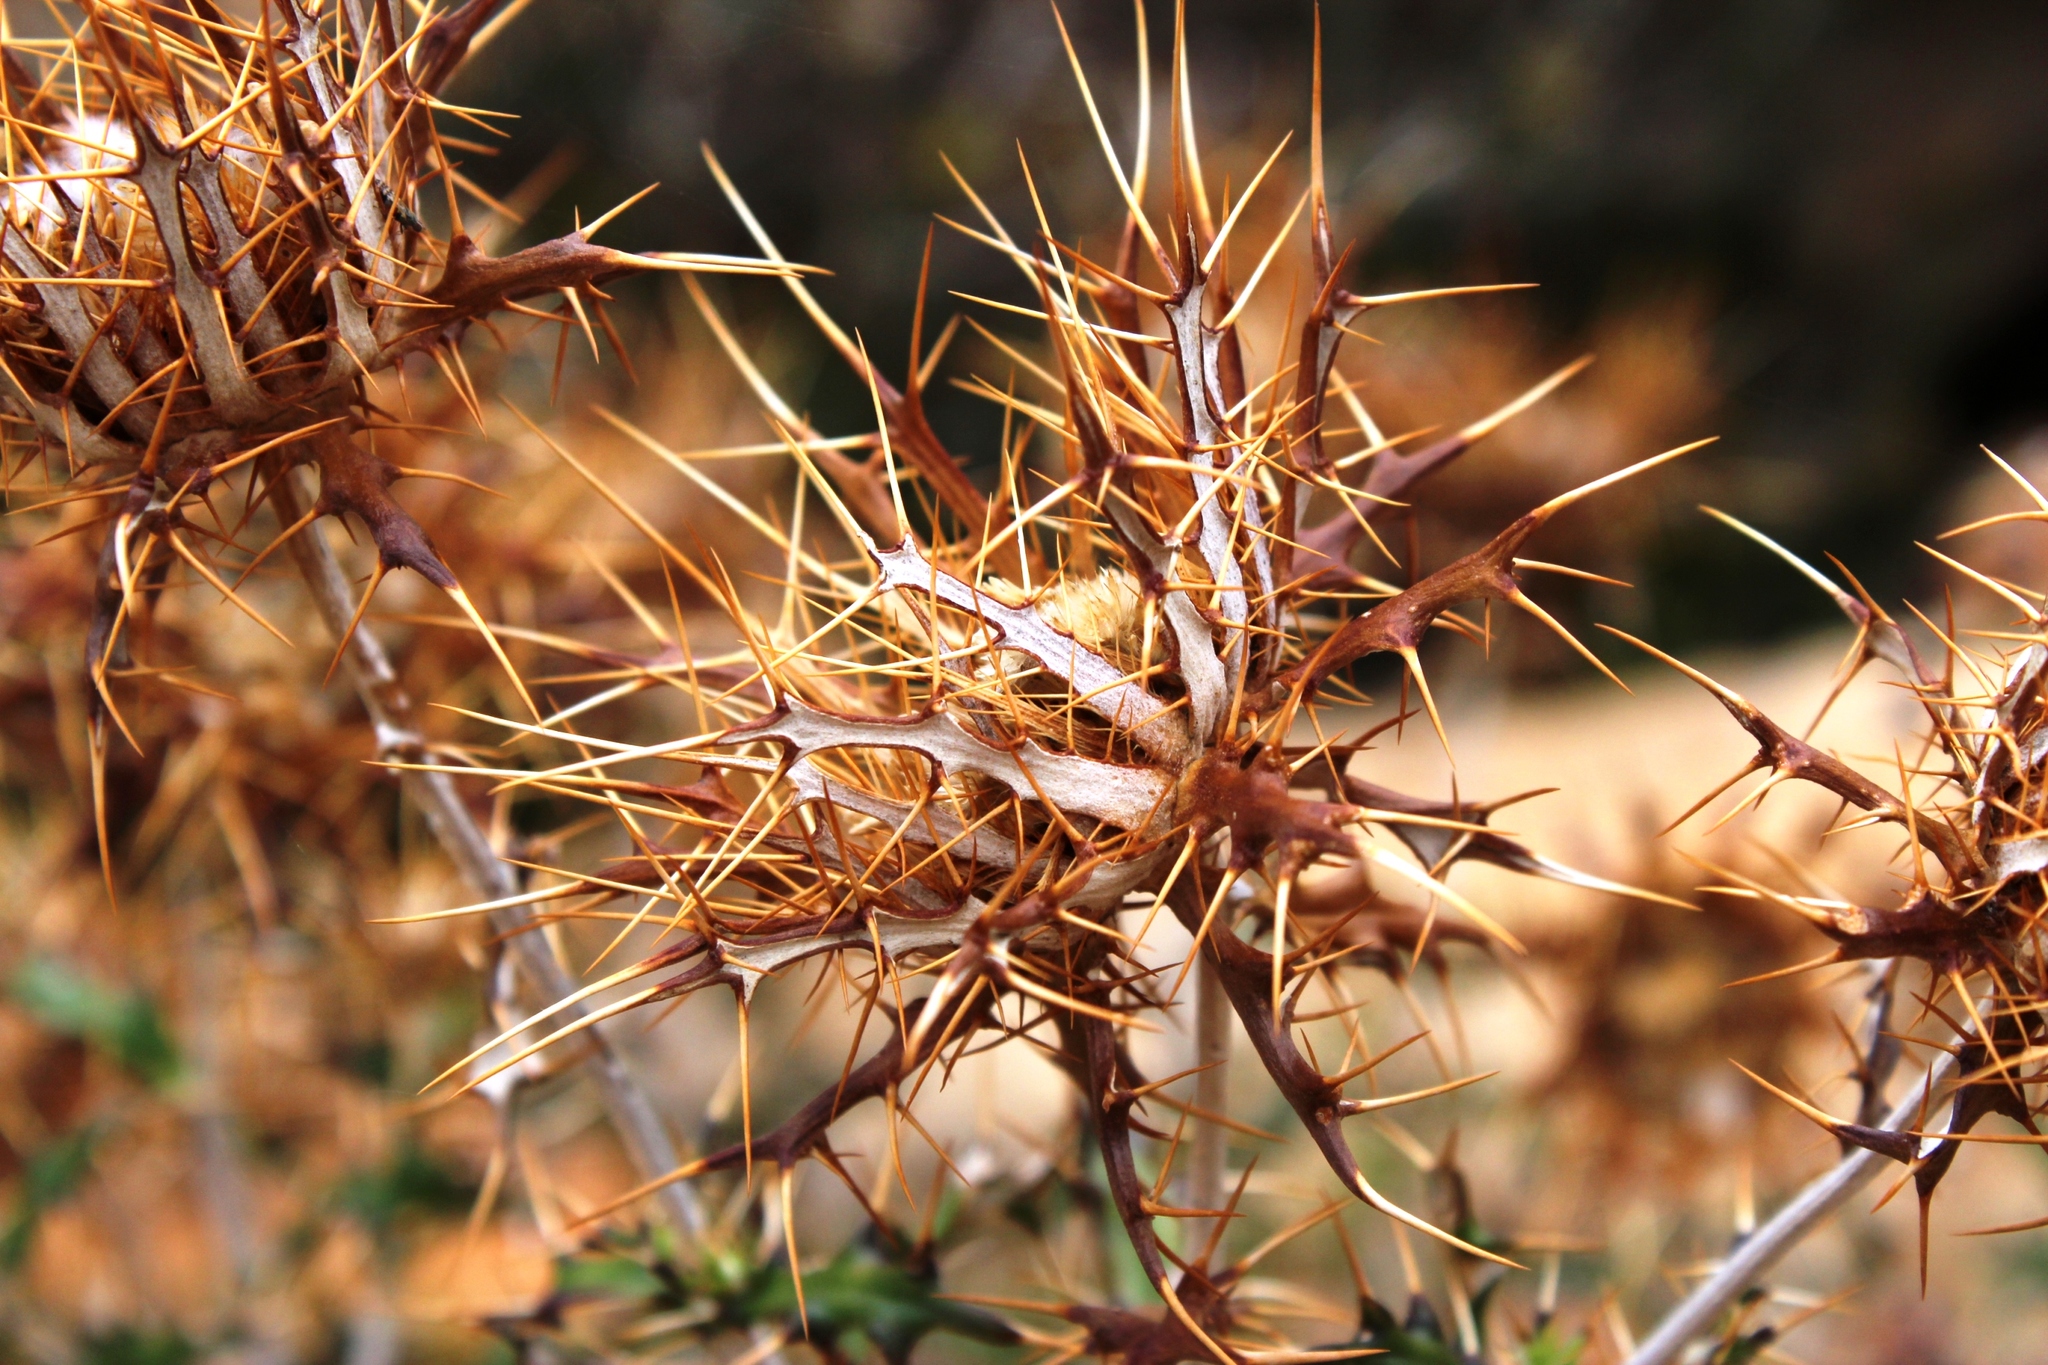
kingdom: Plantae
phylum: Tracheophyta
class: Magnoliopsida
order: Asterales
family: Asteraceae
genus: Berkheya
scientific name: Berkheya barbata
